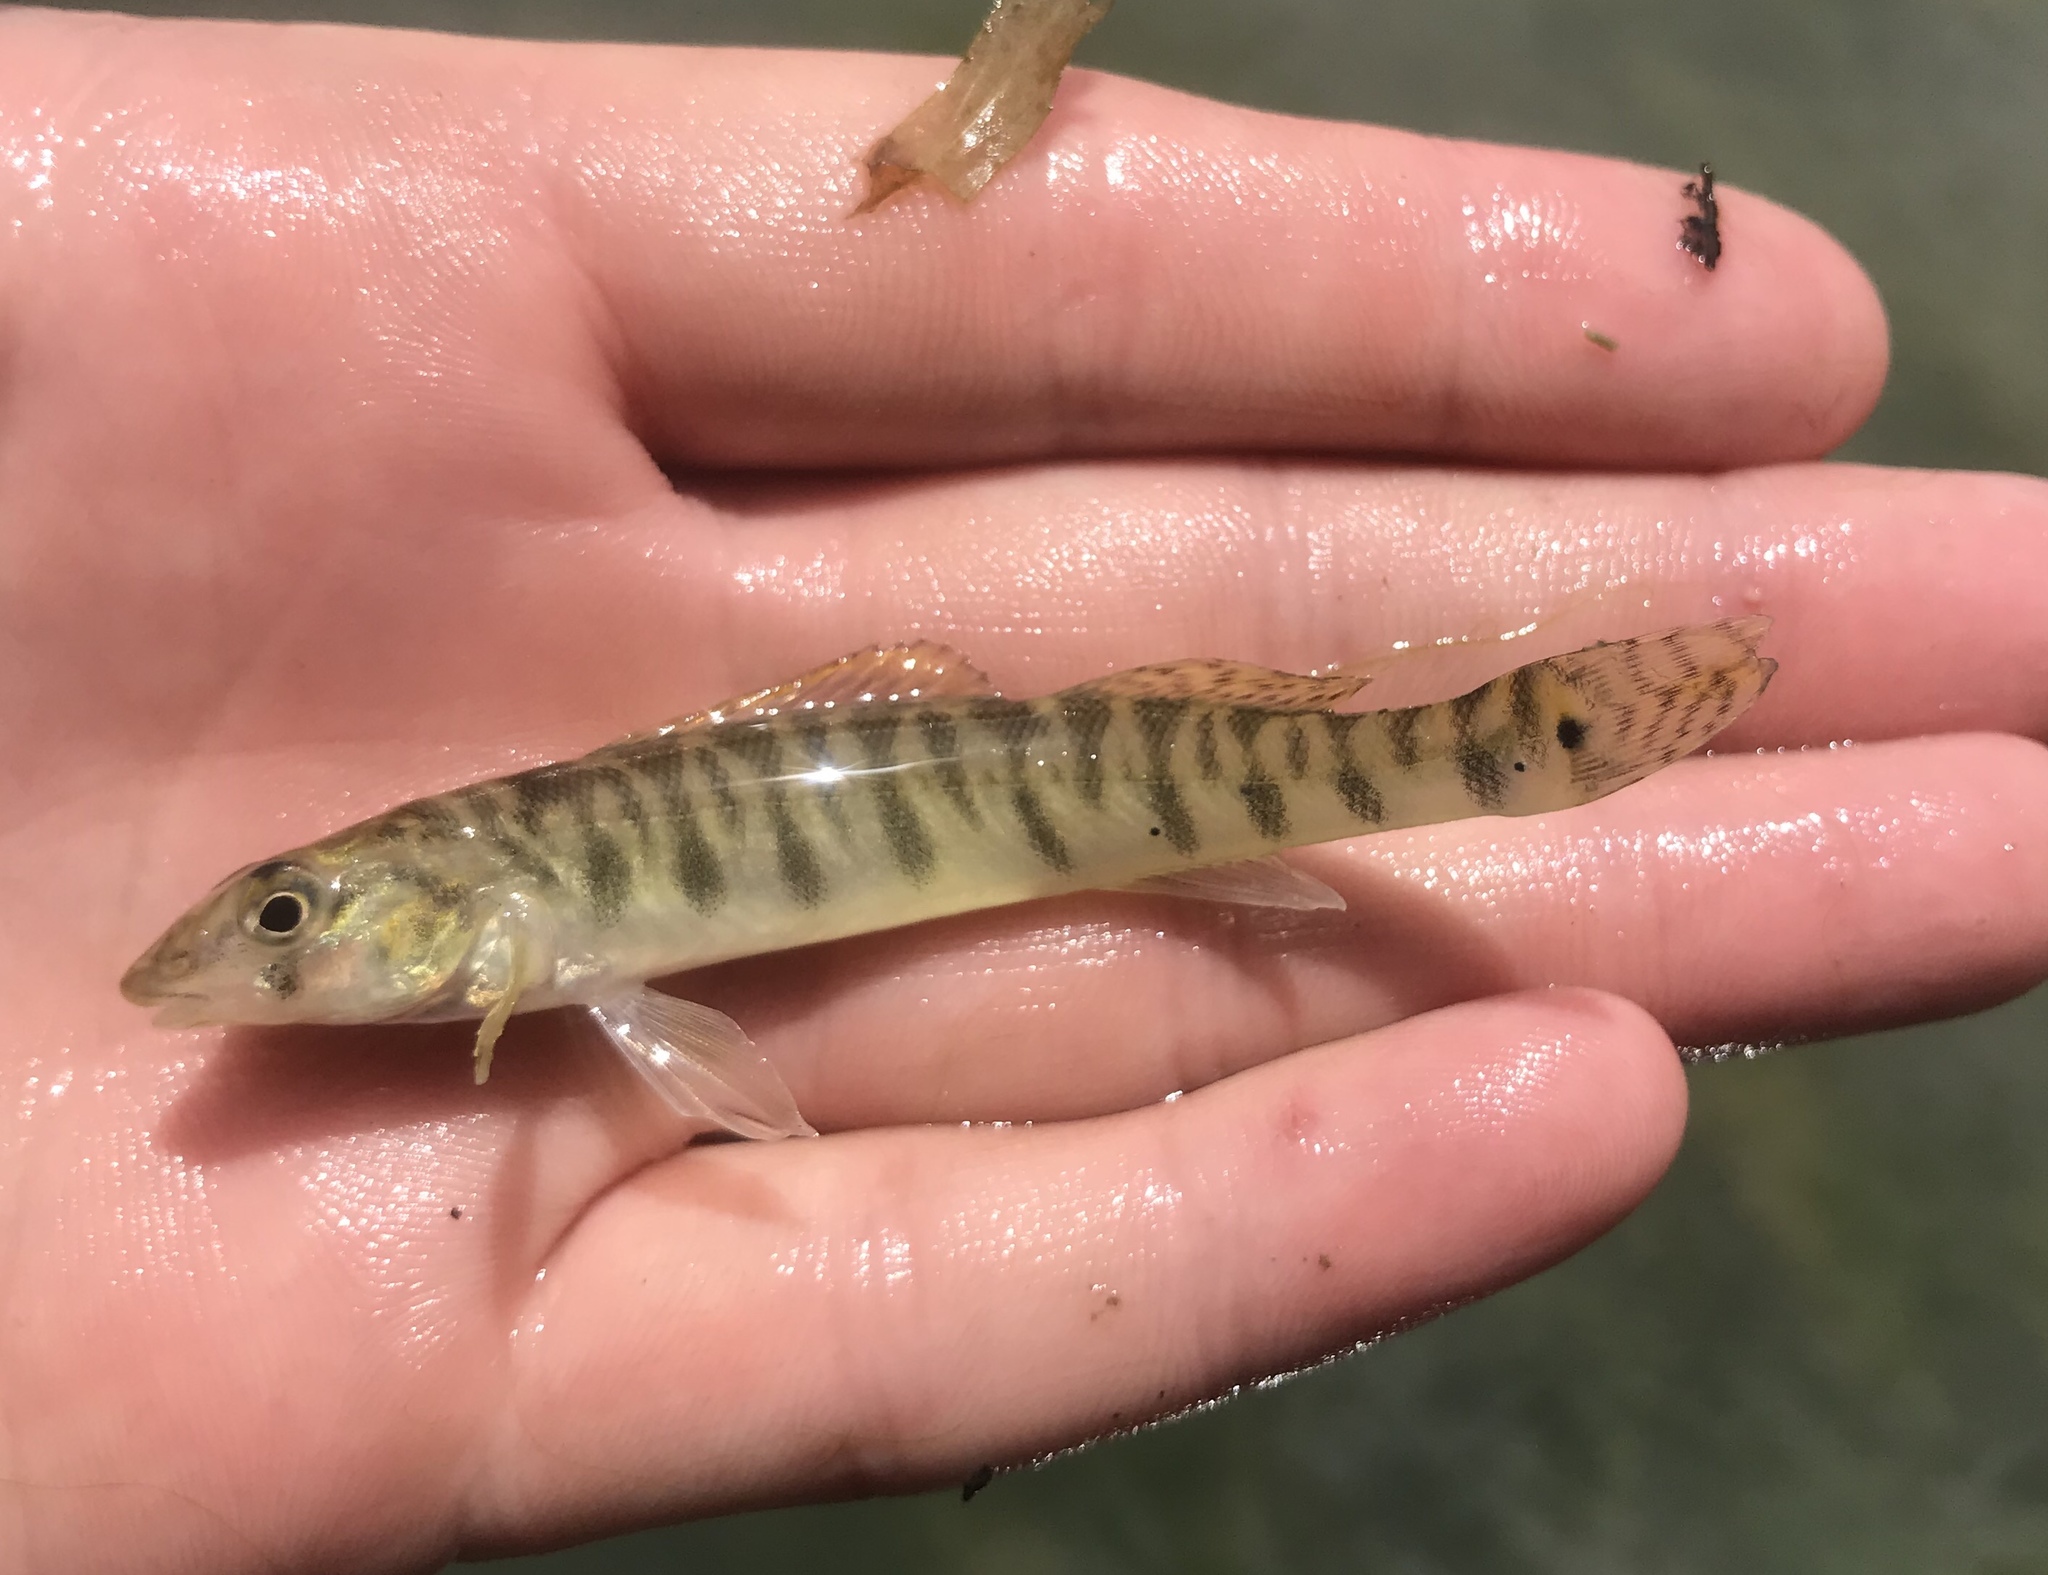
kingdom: Animalia
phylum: Chordata
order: Perciformes
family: Percidae
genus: Percina
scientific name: Percina carbonaria
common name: Texas logperch
